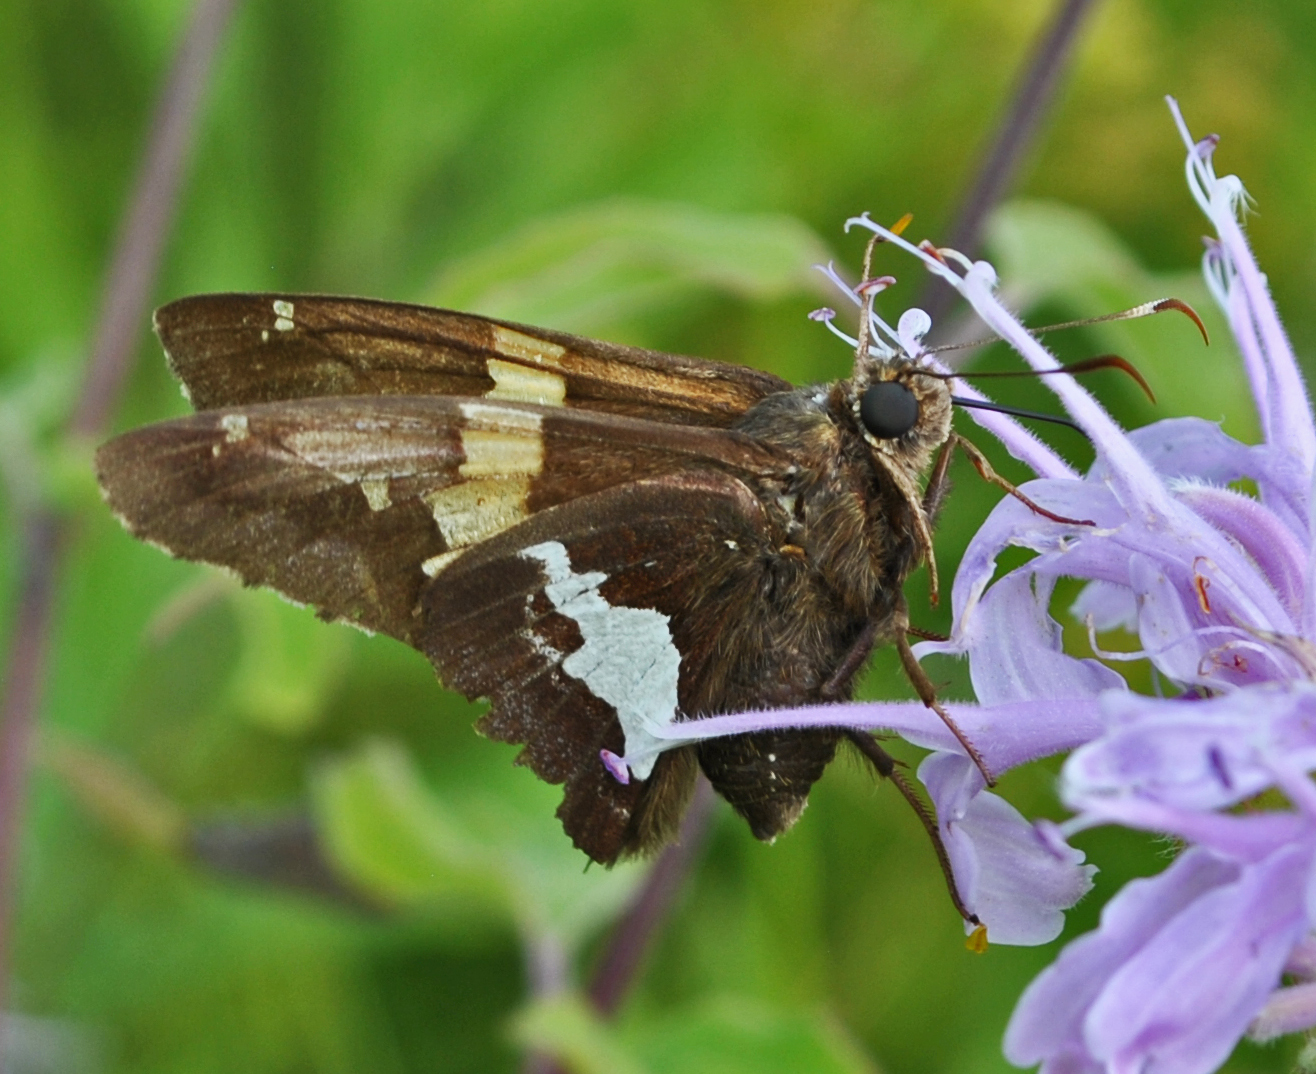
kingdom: Animalia
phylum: Arthropoda
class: Insecta
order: Lepidoptera
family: Hesperiidae
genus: Epargyreus
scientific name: Epargyreus clarus
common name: Silver-spotted skipper
